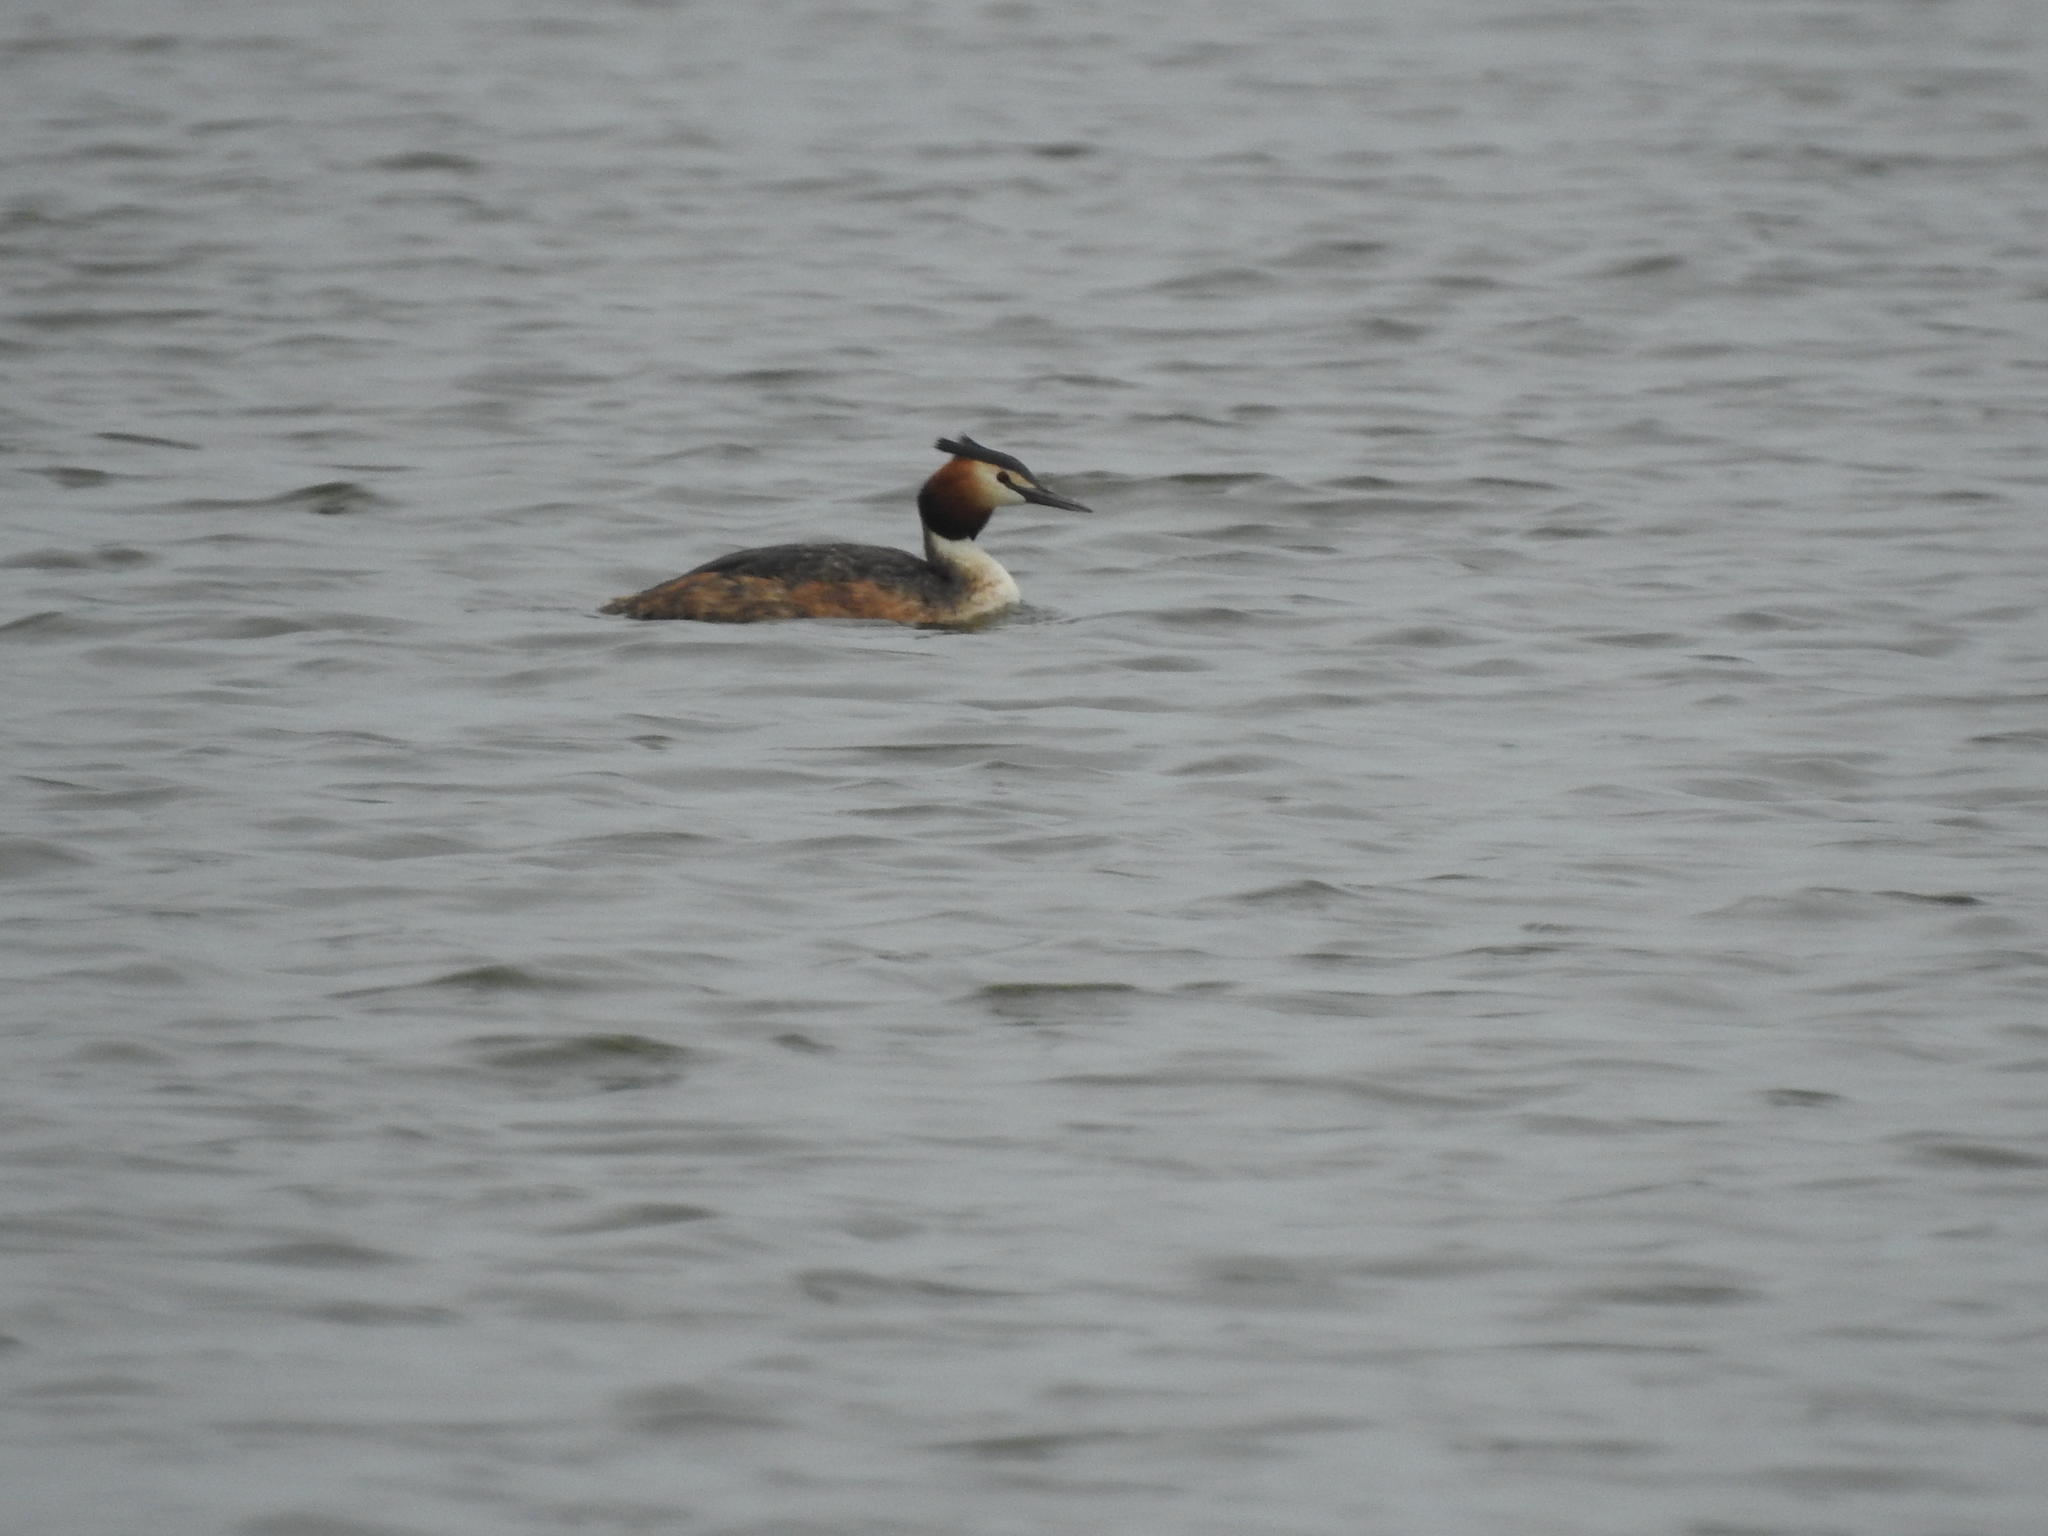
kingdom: Animalia
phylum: Chordata
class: Aves
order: Podicipediformes
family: Podicipedidae
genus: Podiceps
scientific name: Podiceps cristatus
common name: Great crested grebe
